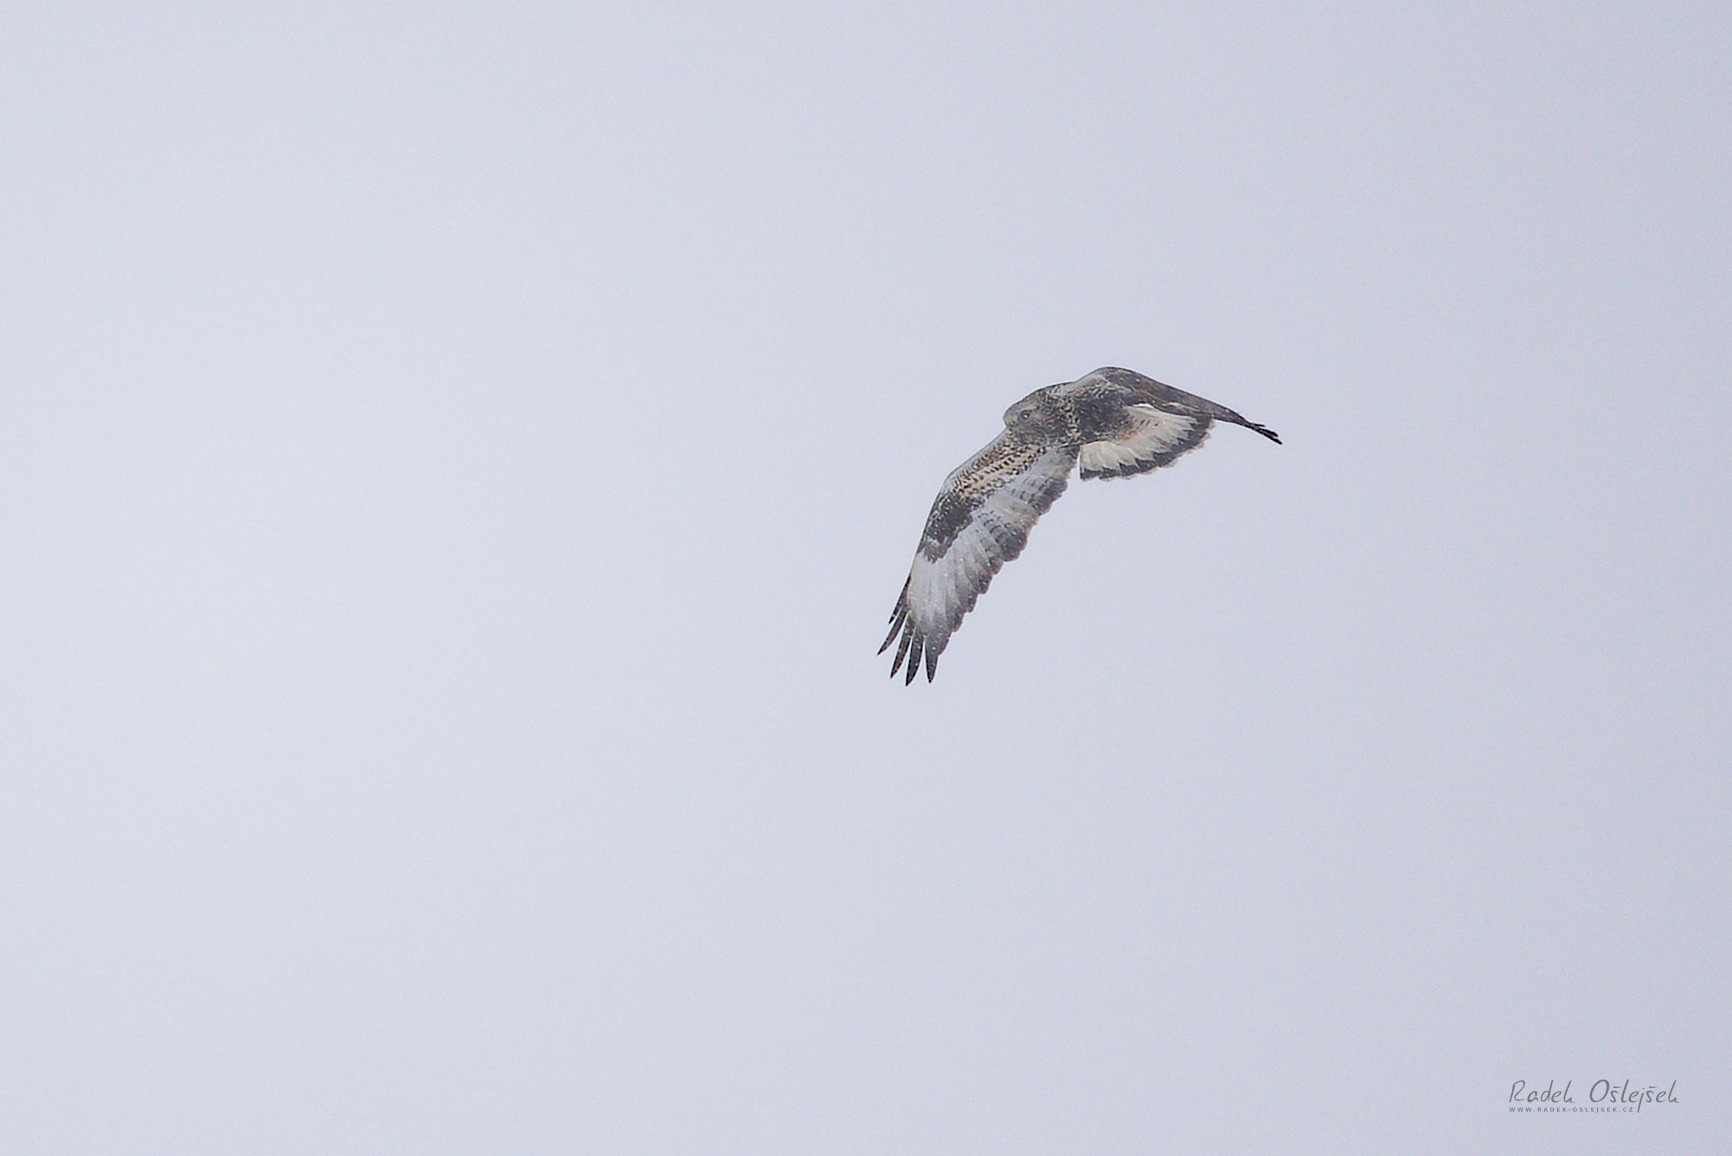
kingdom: Animalia
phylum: Chordata
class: Aves
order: Accipitriformes
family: Accipitridae
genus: Buteo
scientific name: Buteo lagopus
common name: Rough-legged buzzard
